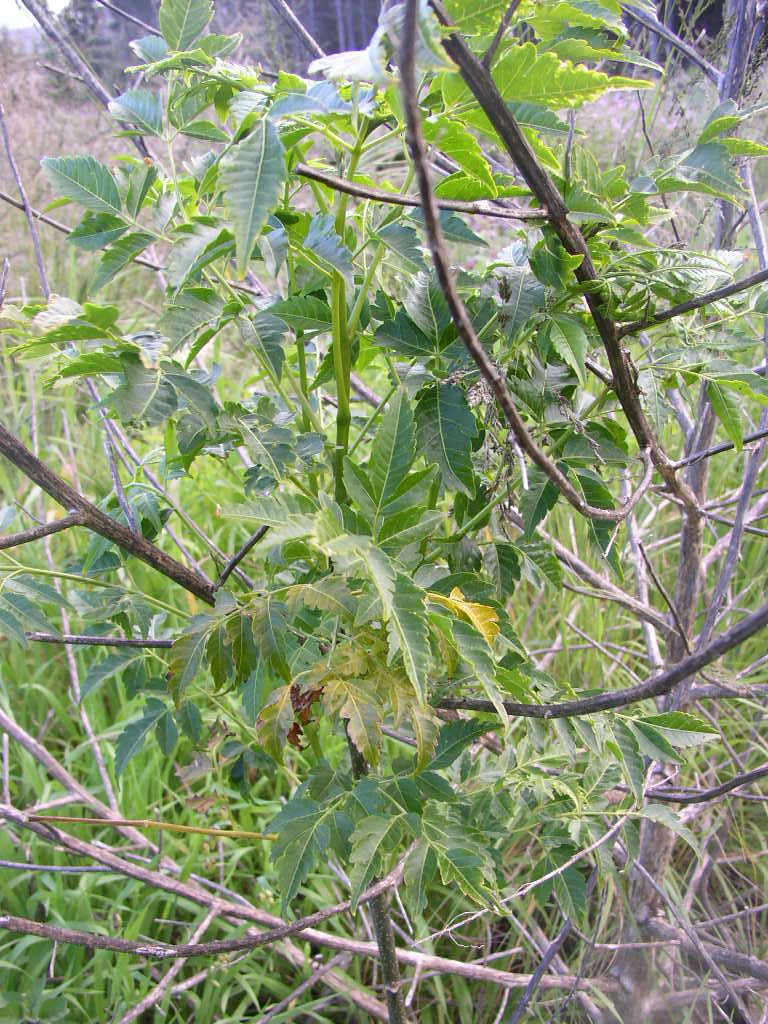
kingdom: Plantae
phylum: Tracheophyta
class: Magnoliopsida
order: Sapindales
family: Meliaceae
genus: Melia
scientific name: Melia azedarach
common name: Chinaberrytree
